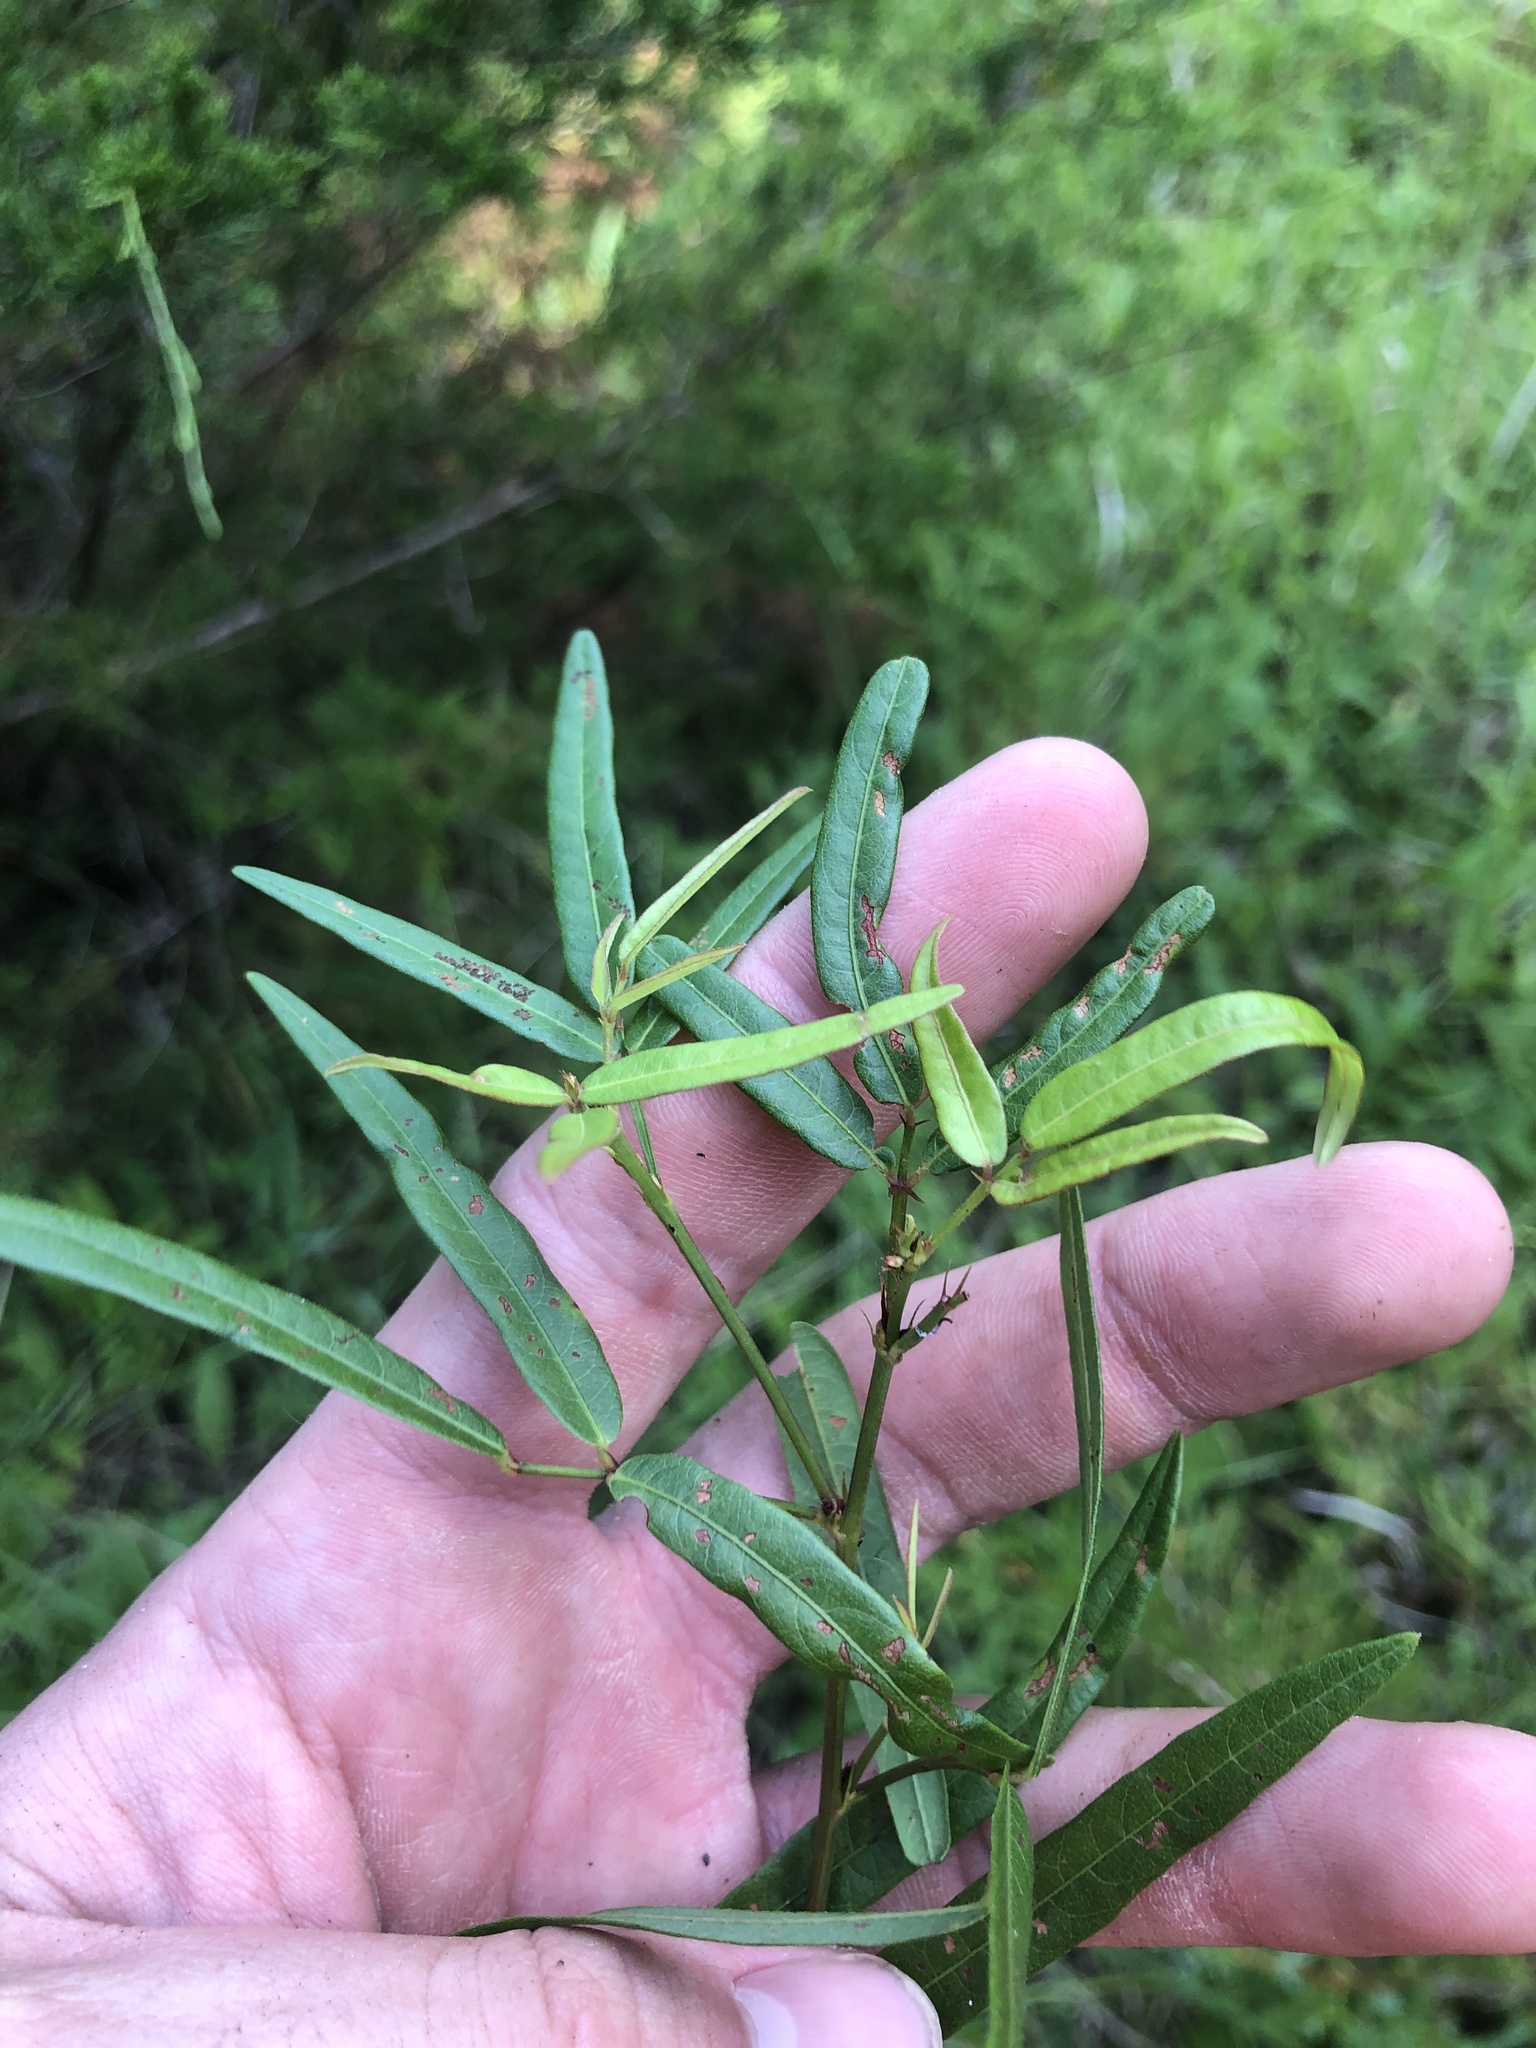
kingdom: Plantae
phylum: Tracheophyta
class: Magnoliopsida
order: Fabales
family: Fabaceae
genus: Desmodium
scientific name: Desmodium paniculatum
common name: Panicled tick-clover
